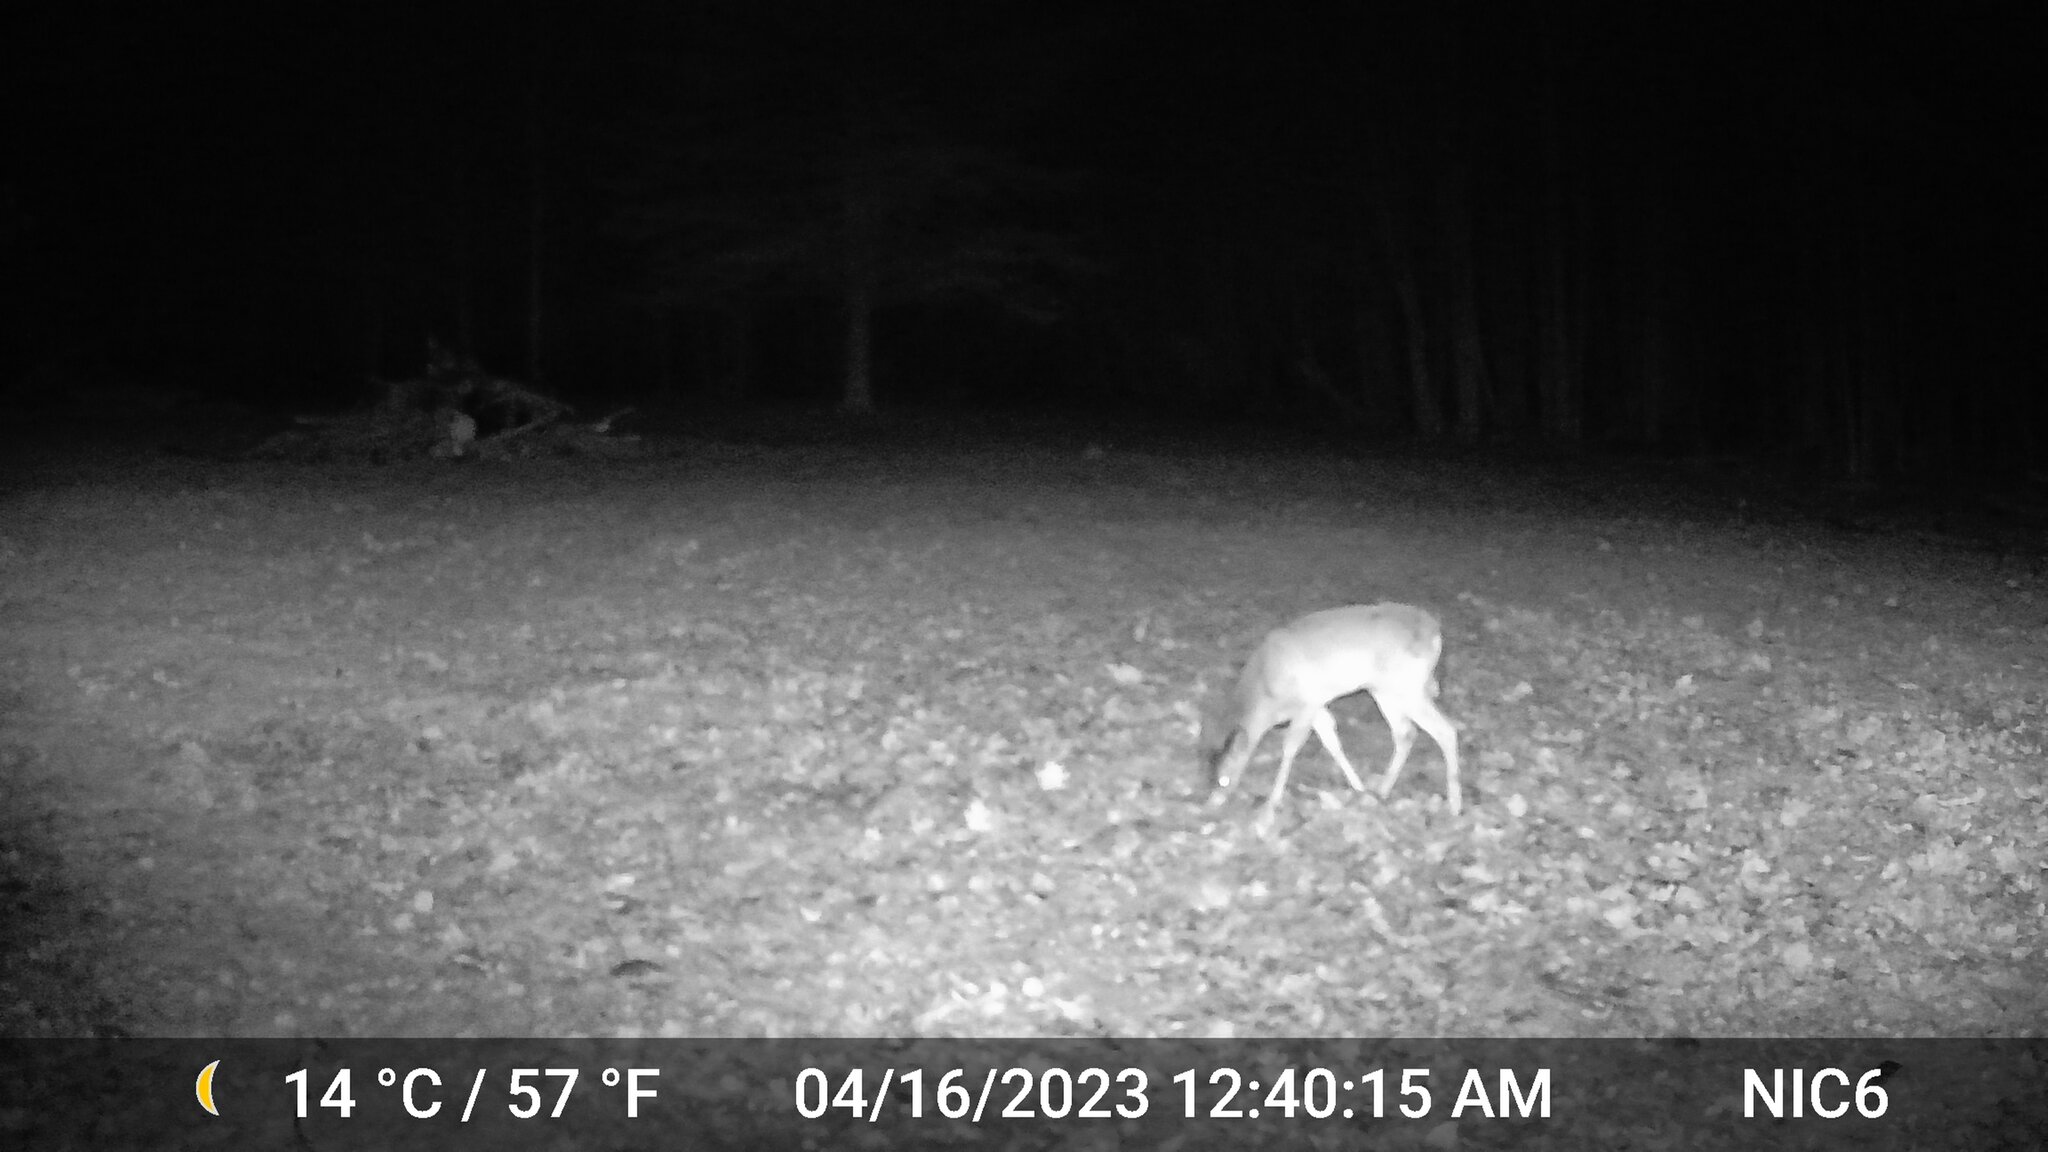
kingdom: Animalia
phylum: Chordata
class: Mammalia
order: Artiodactyla
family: Cervidae
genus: Odocoileus
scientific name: Odocoileus virginianus
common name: White-tailed deer
